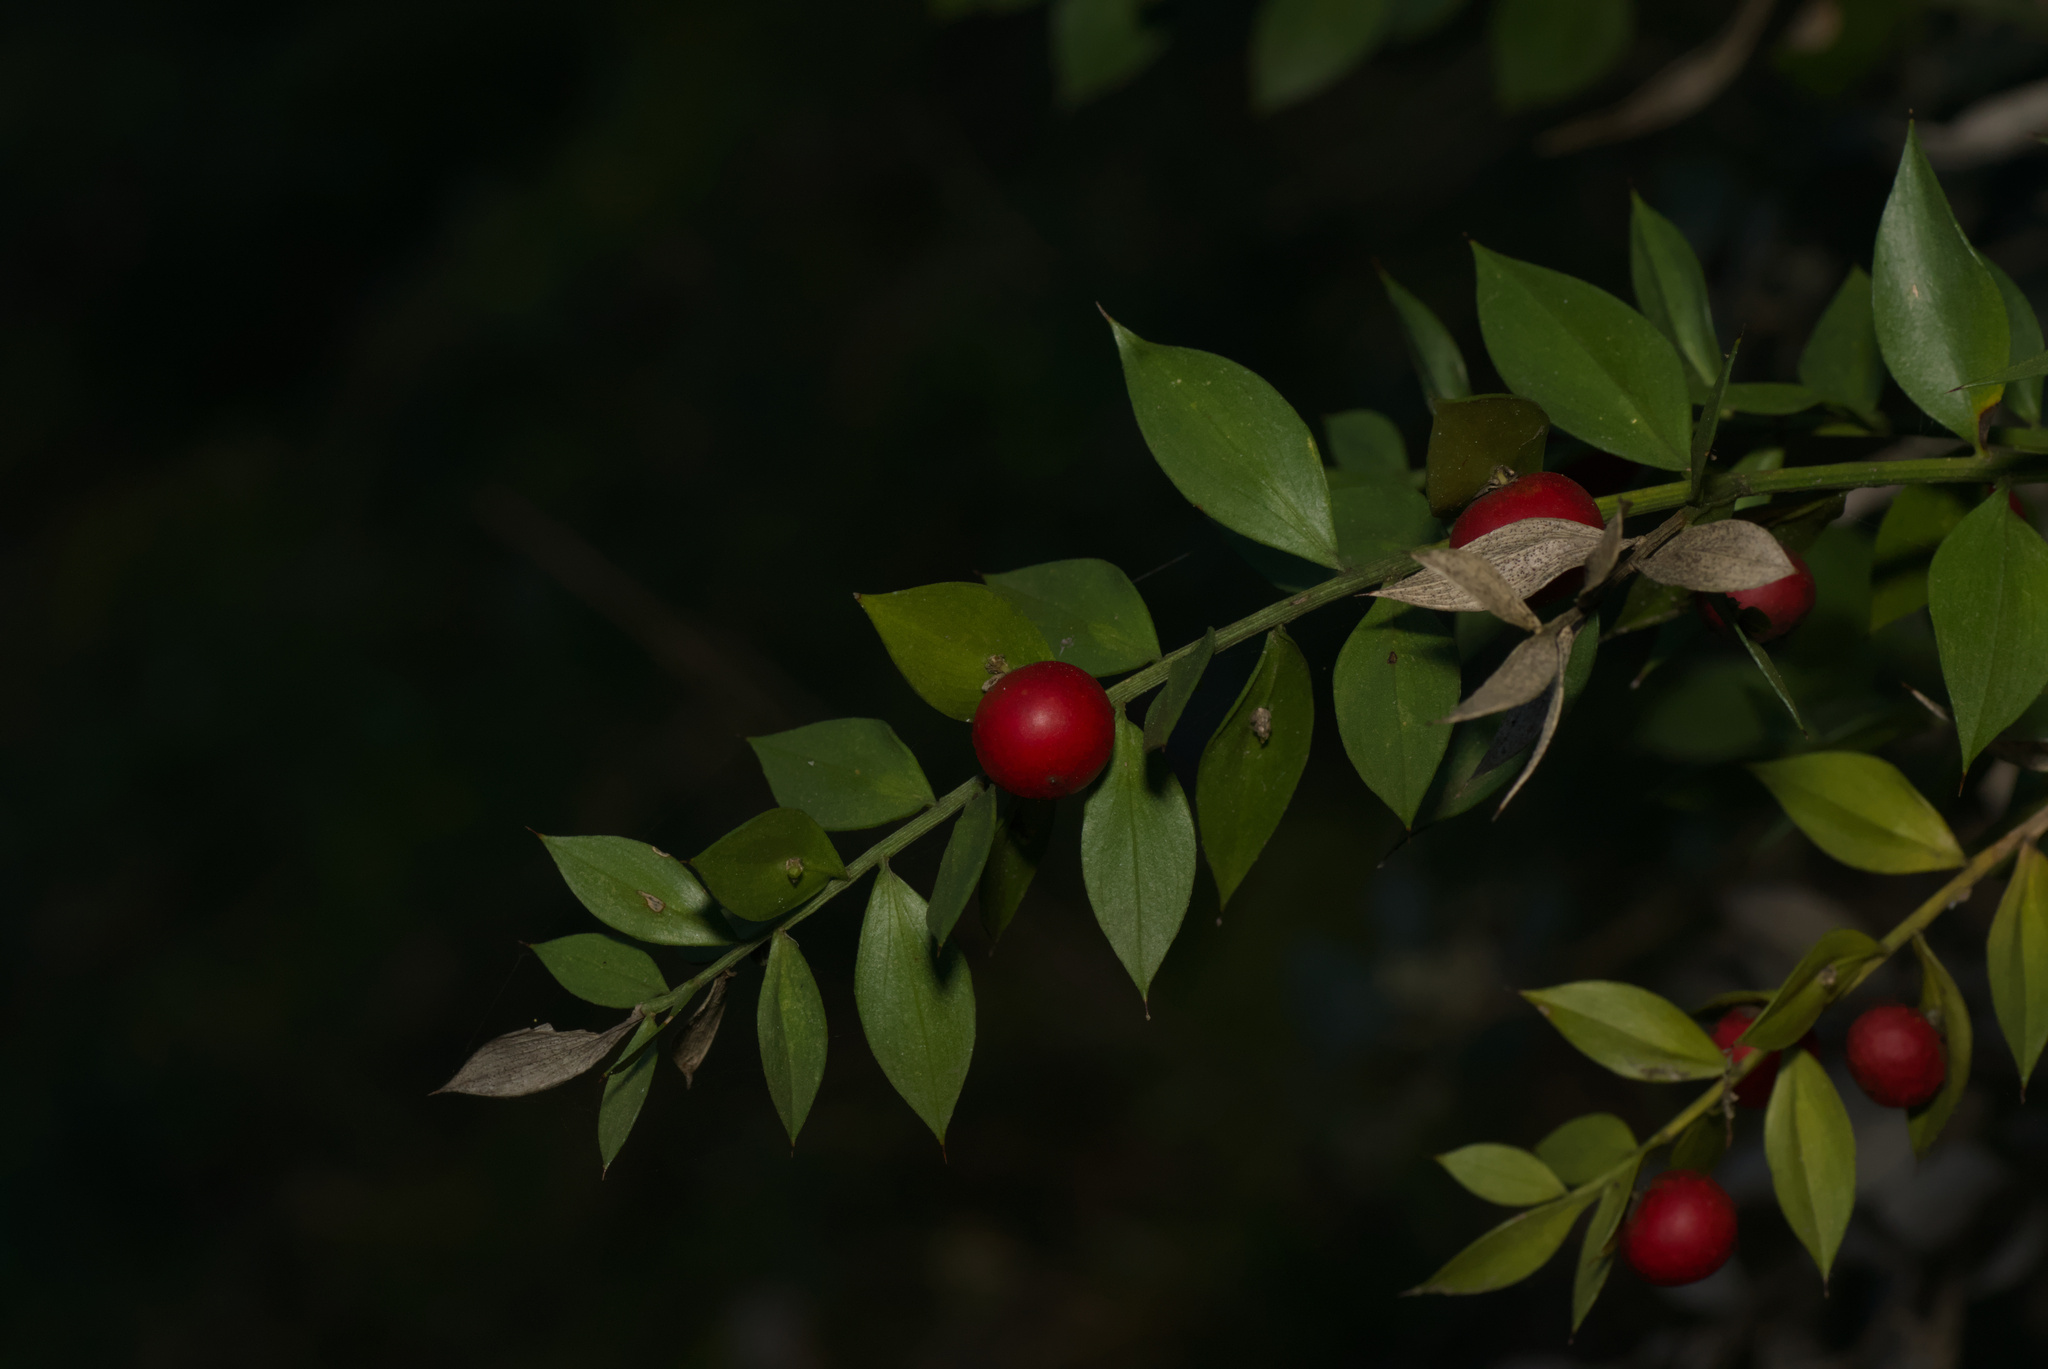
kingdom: Plantae
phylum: Tracheophyta
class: Liliopsida
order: Asparagales
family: Asparagaceae
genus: Ruscus
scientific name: Ruscus aculeatus
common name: Butcher's-broom
